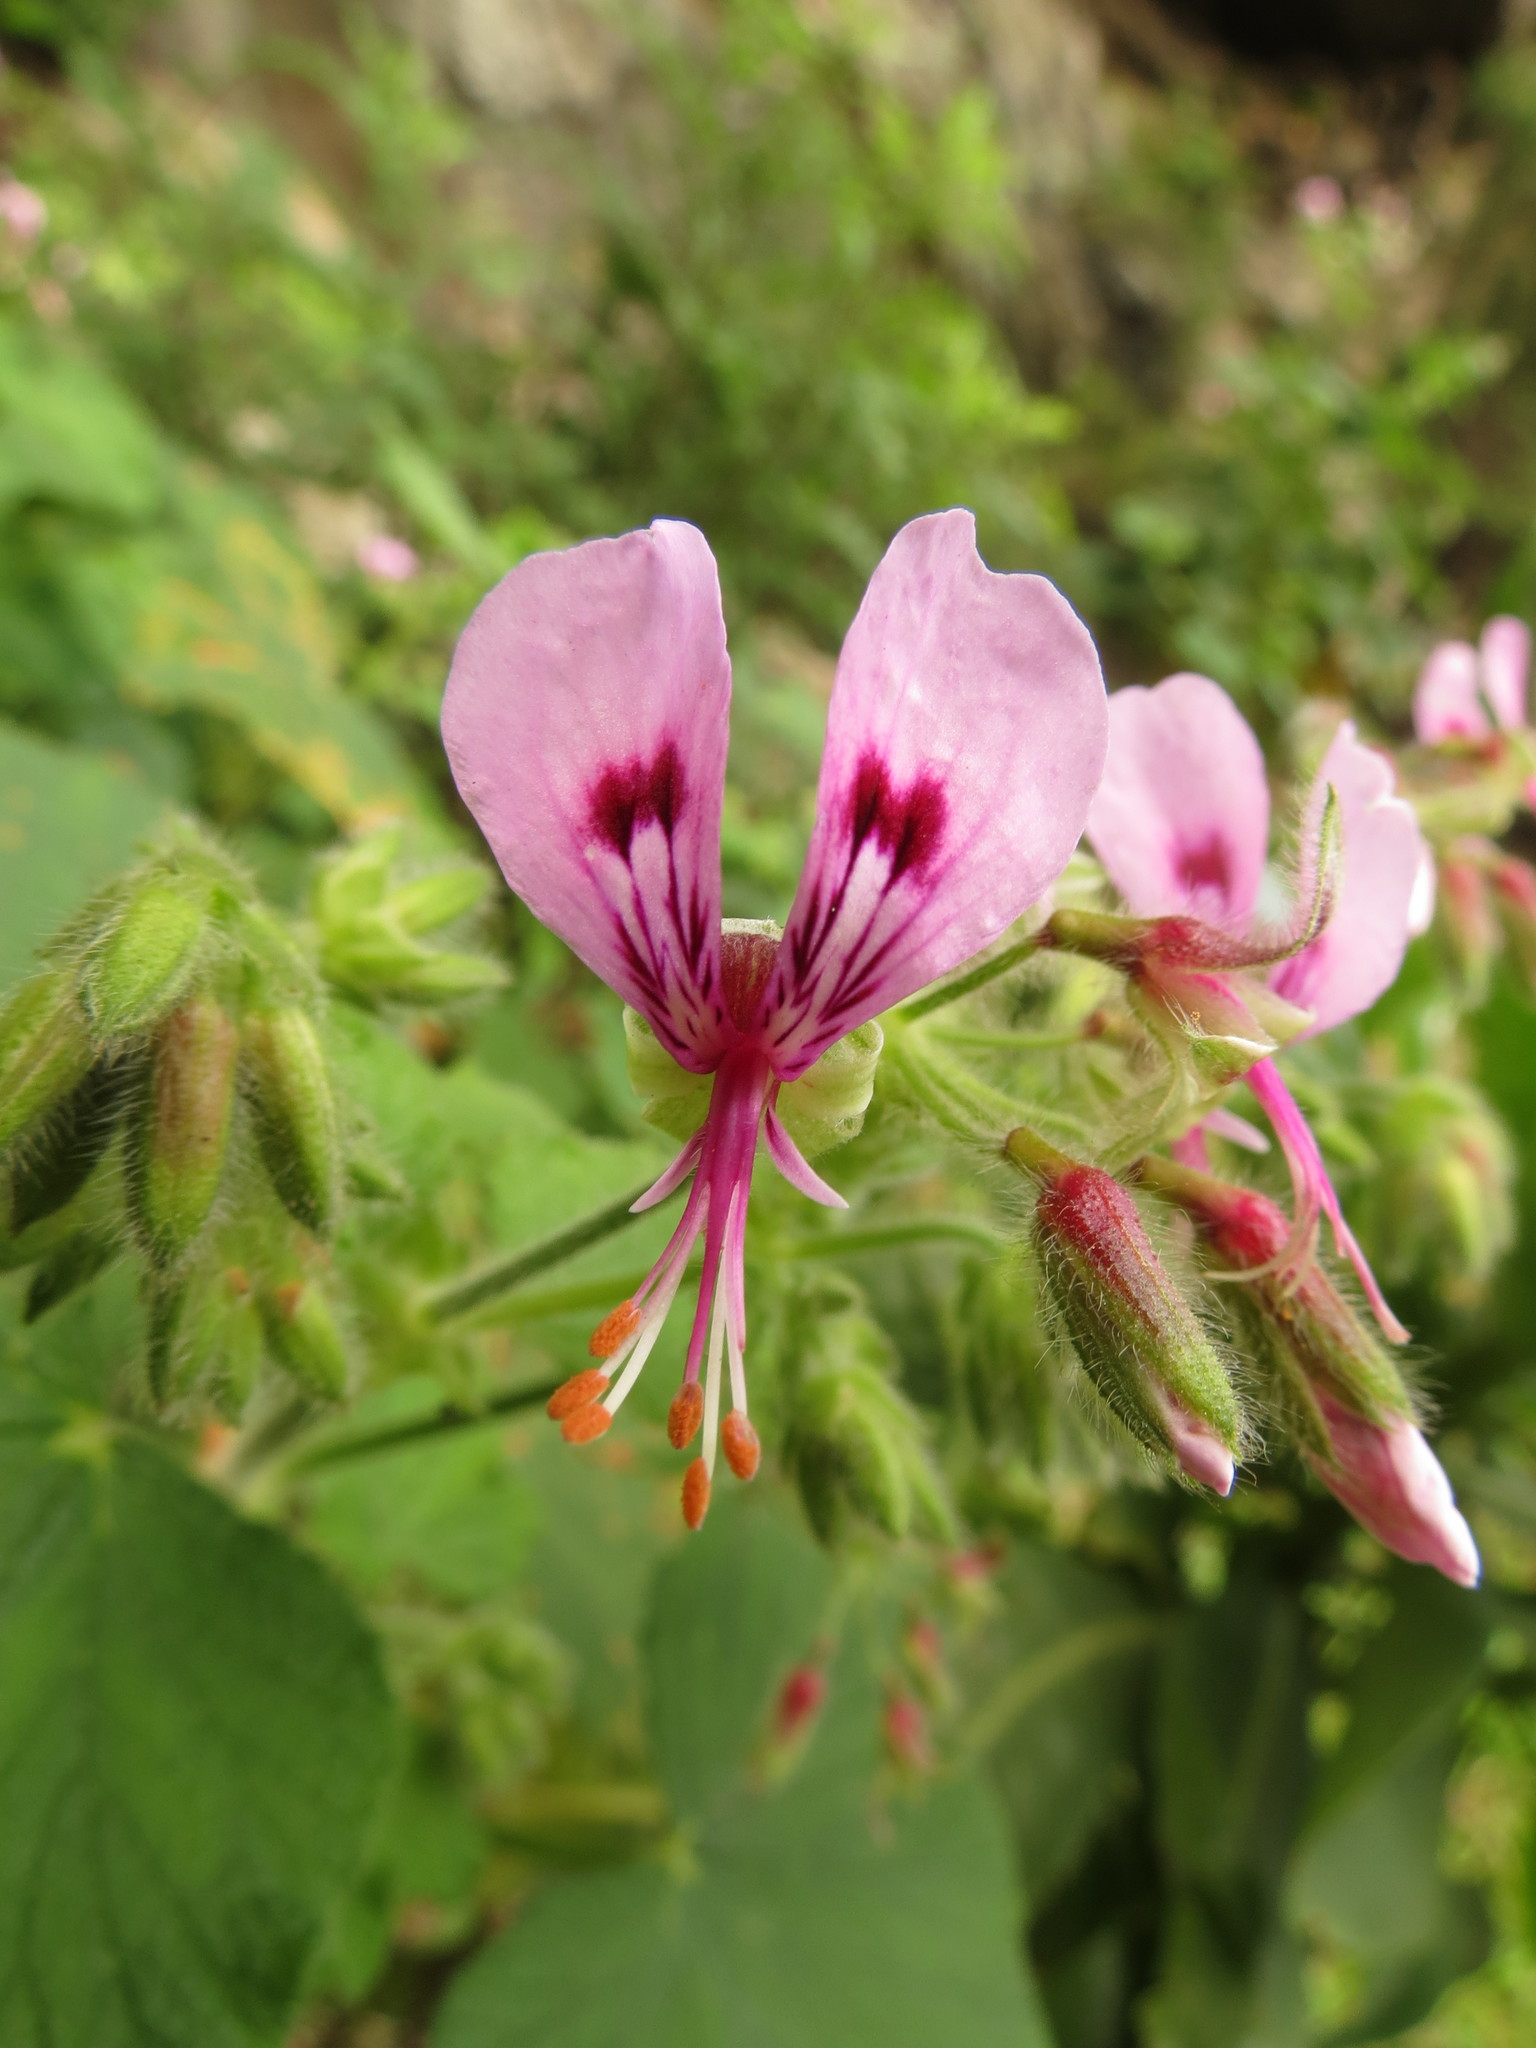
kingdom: Plantae
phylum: Tracheophyta
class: Magnoliopsida
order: Geraniales
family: Geraniaceae
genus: Pelargonium
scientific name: Pelargonium papilionaceum
